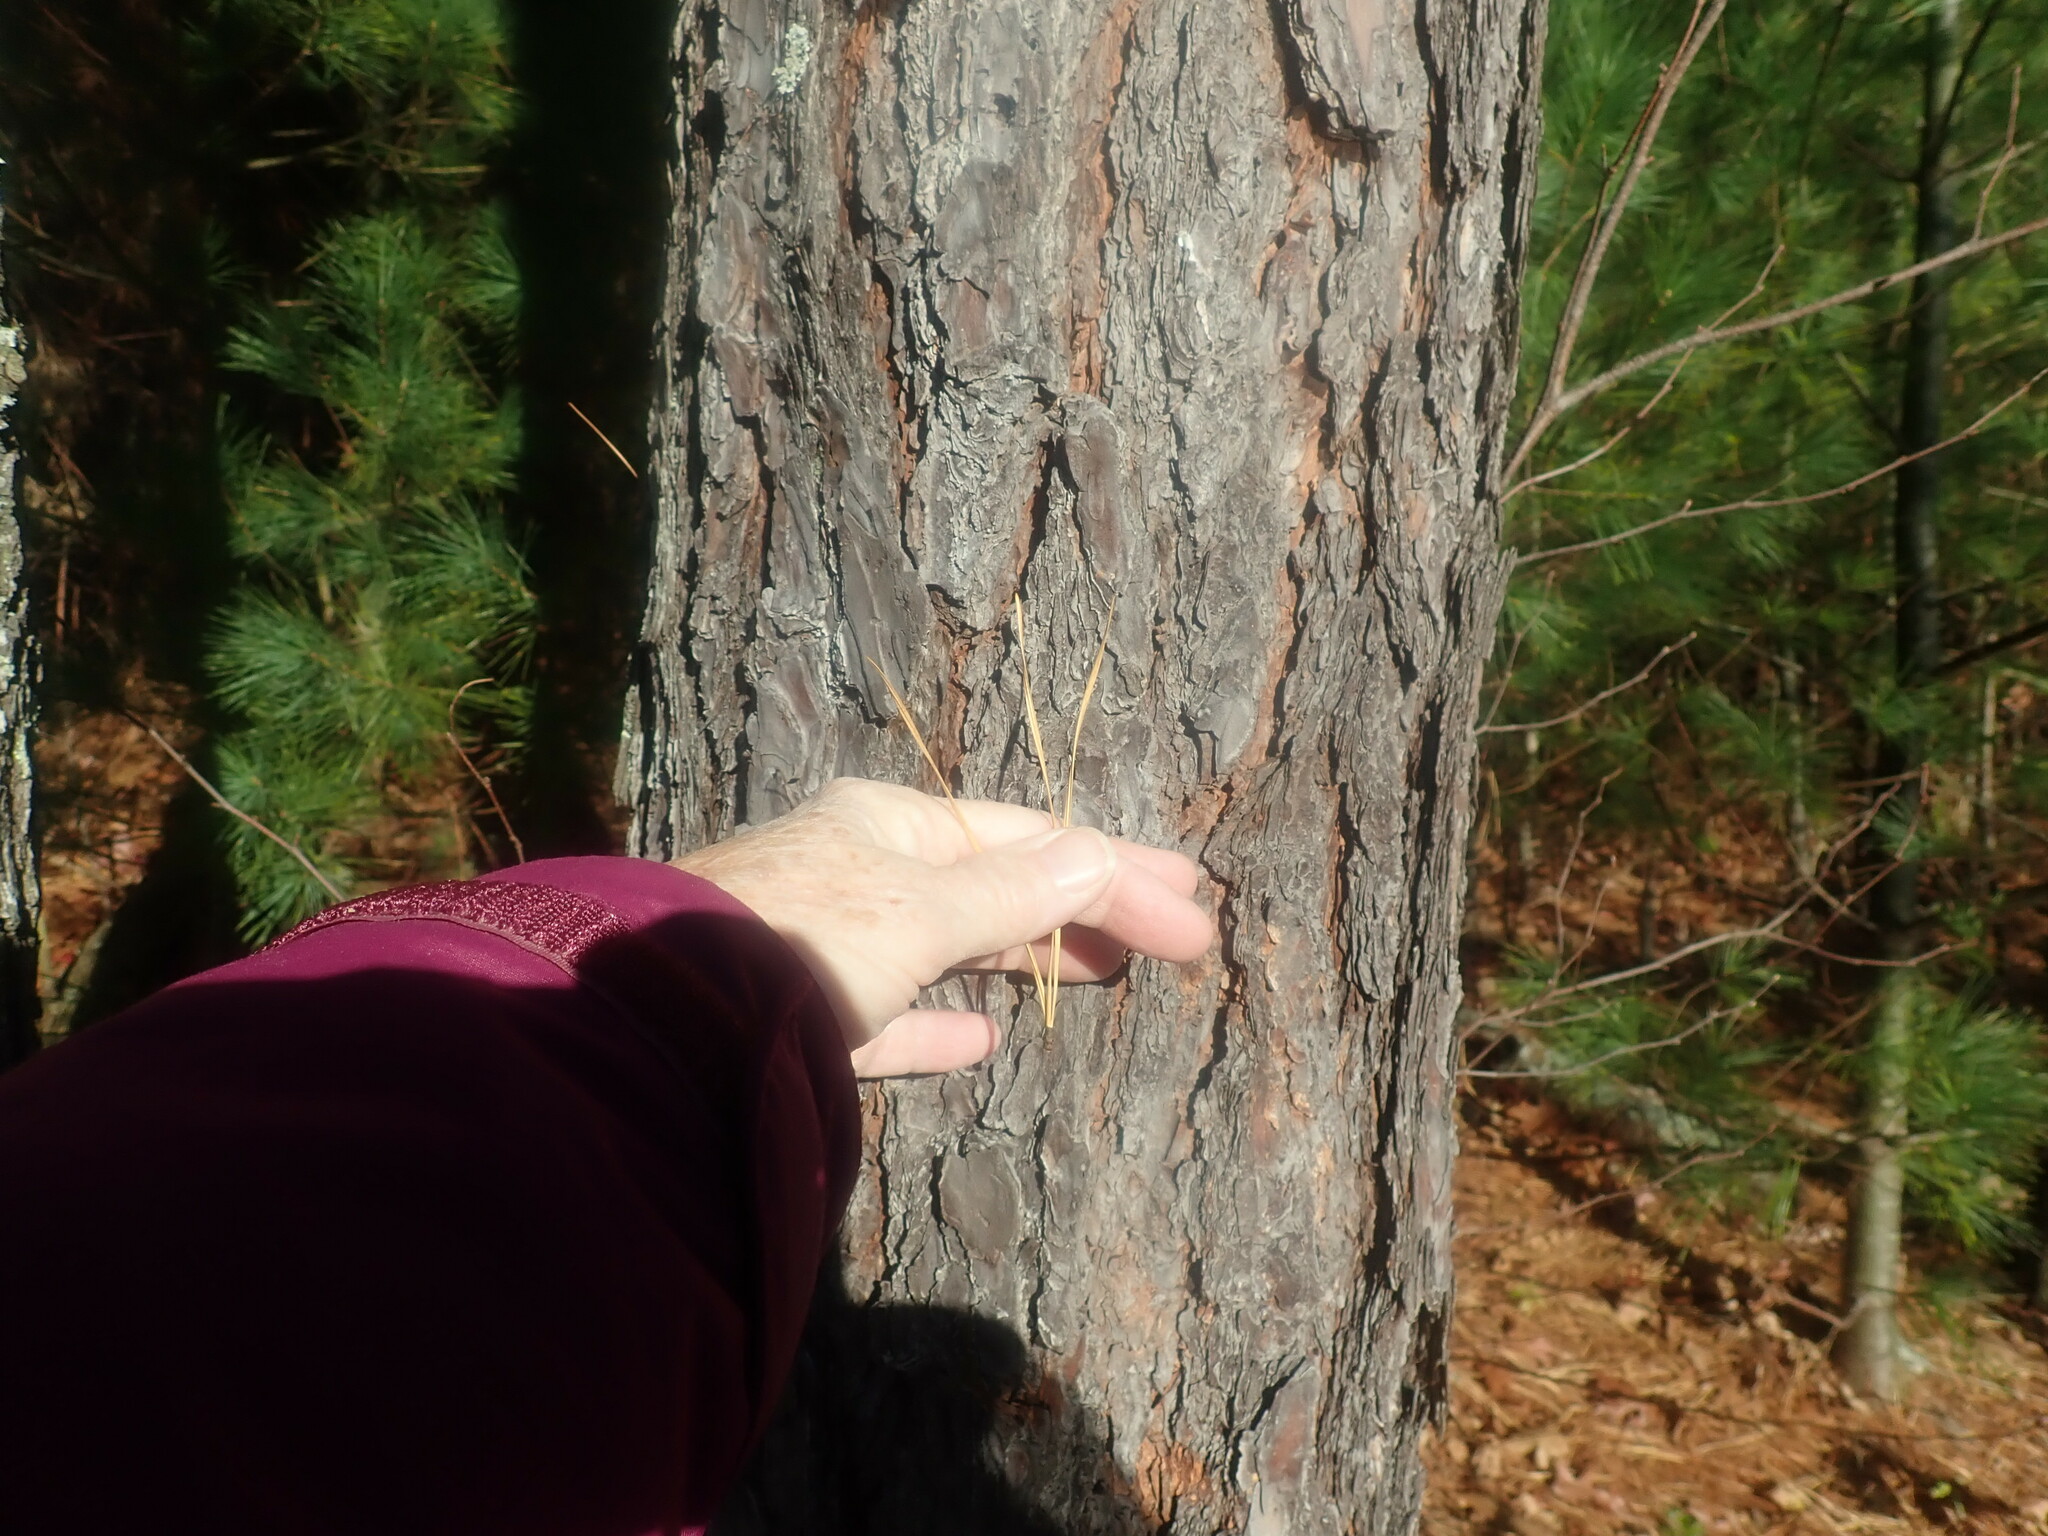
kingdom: Plantae
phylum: Tracheophyta
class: Pinopsida
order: Pinales
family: Pinaceae
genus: Pinus
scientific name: Pinus rigida
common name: Pitch pine
